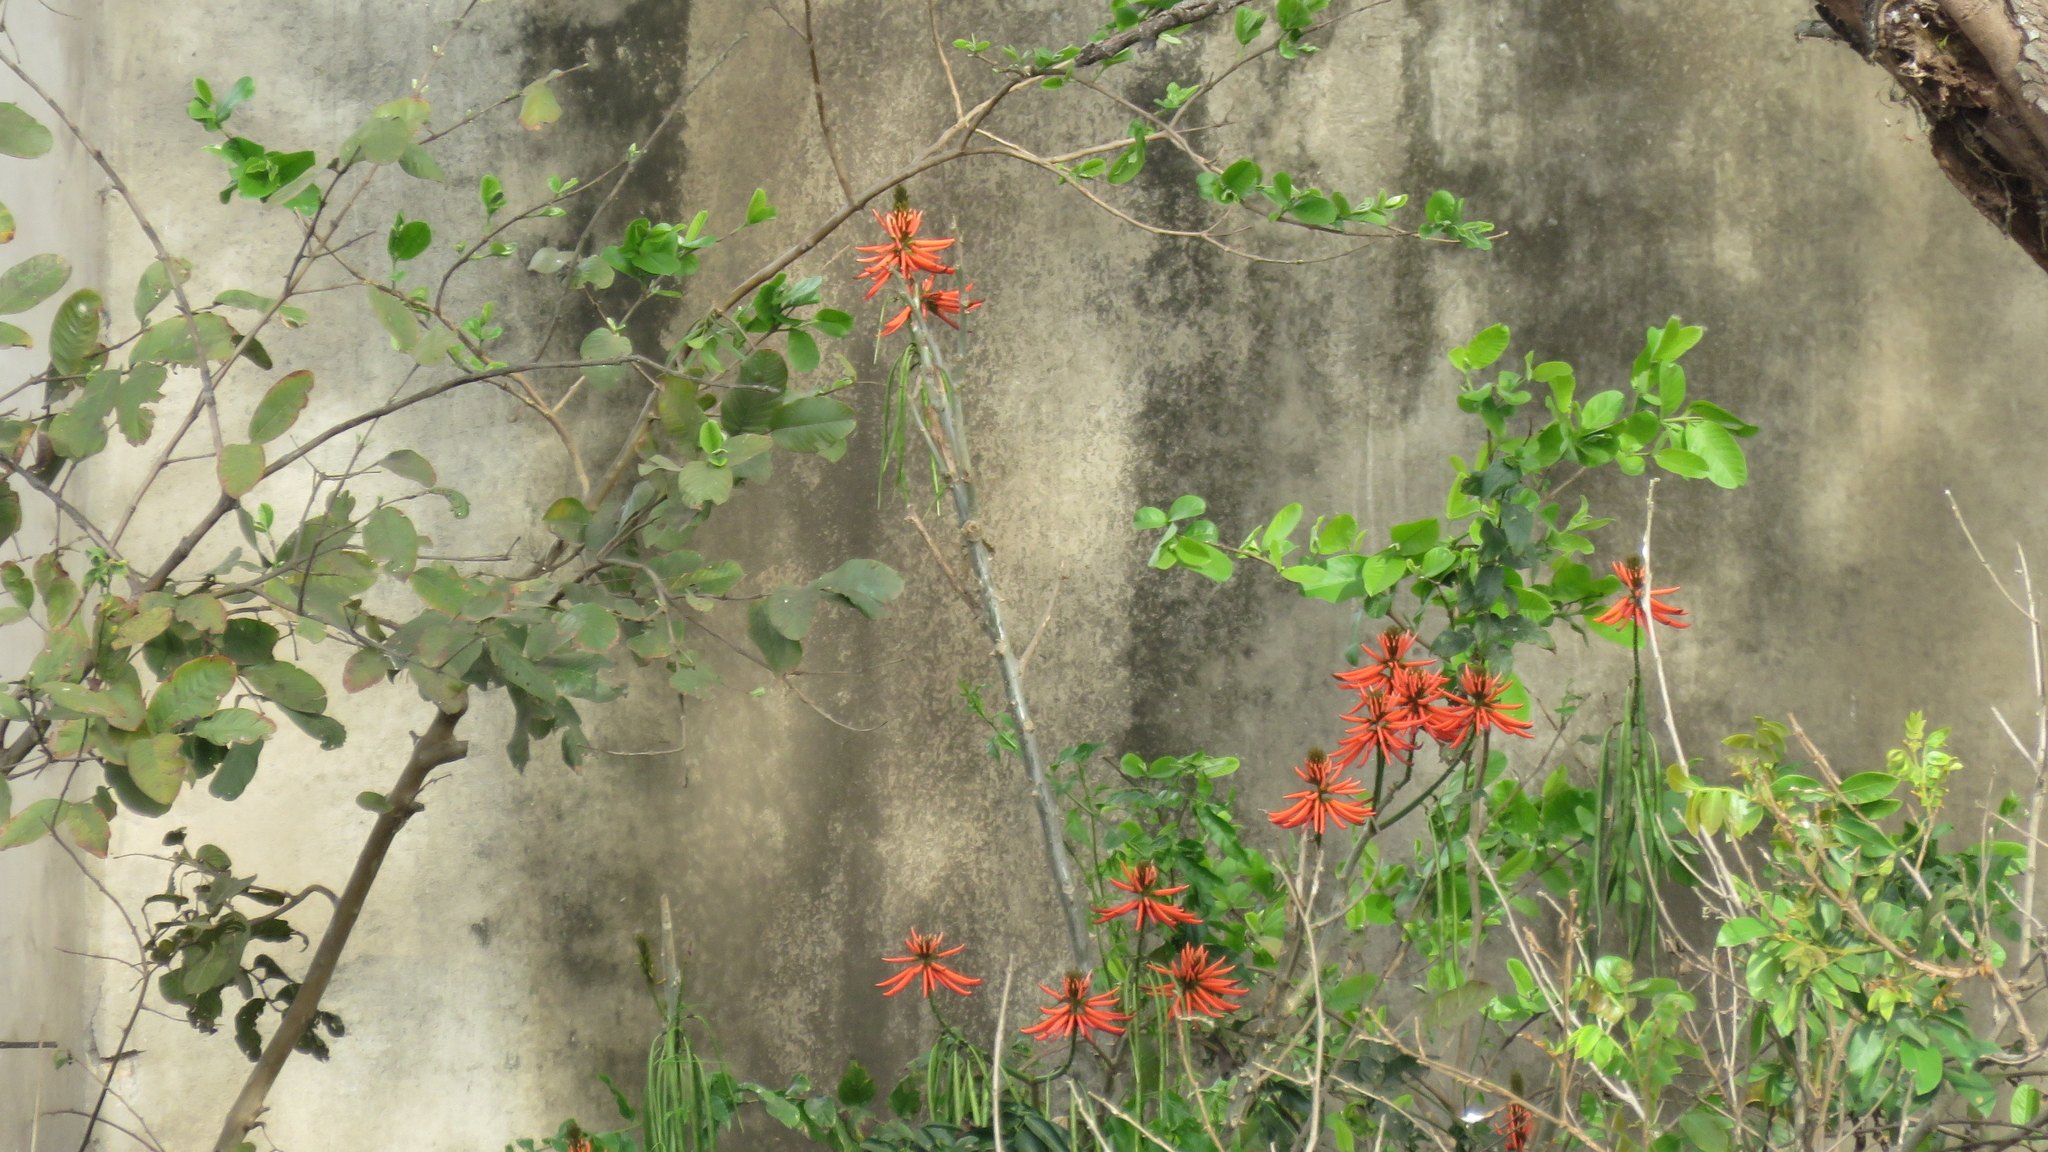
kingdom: Plantae
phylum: Tracheophyta
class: Magnoliopsida
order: Fabales
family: Fabaceae
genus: Erythrina
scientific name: Erythrina speciosa
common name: Coral tree
